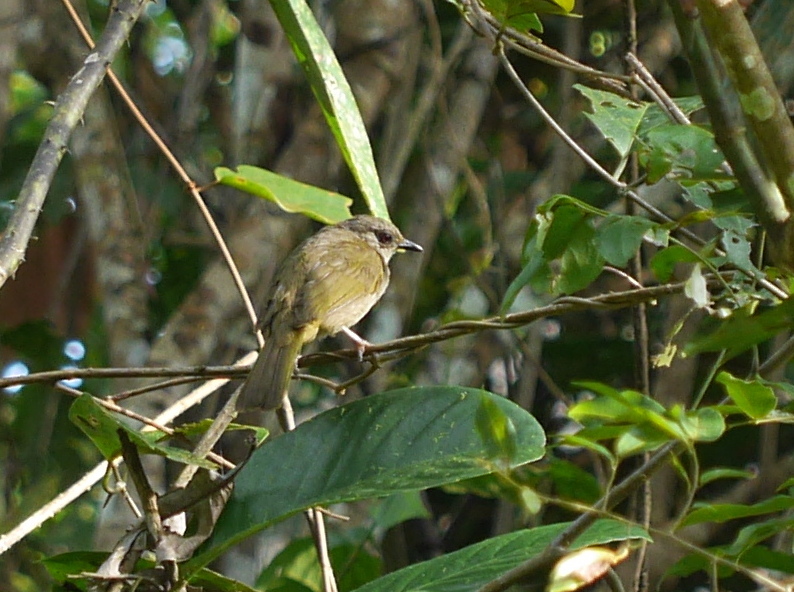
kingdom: Animalia
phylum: Chordata
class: Aves
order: Passeriformes
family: Pycnonotidae
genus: Pycnonotus
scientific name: Pycnonotus plumosus
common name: Olive-winged bulbul
